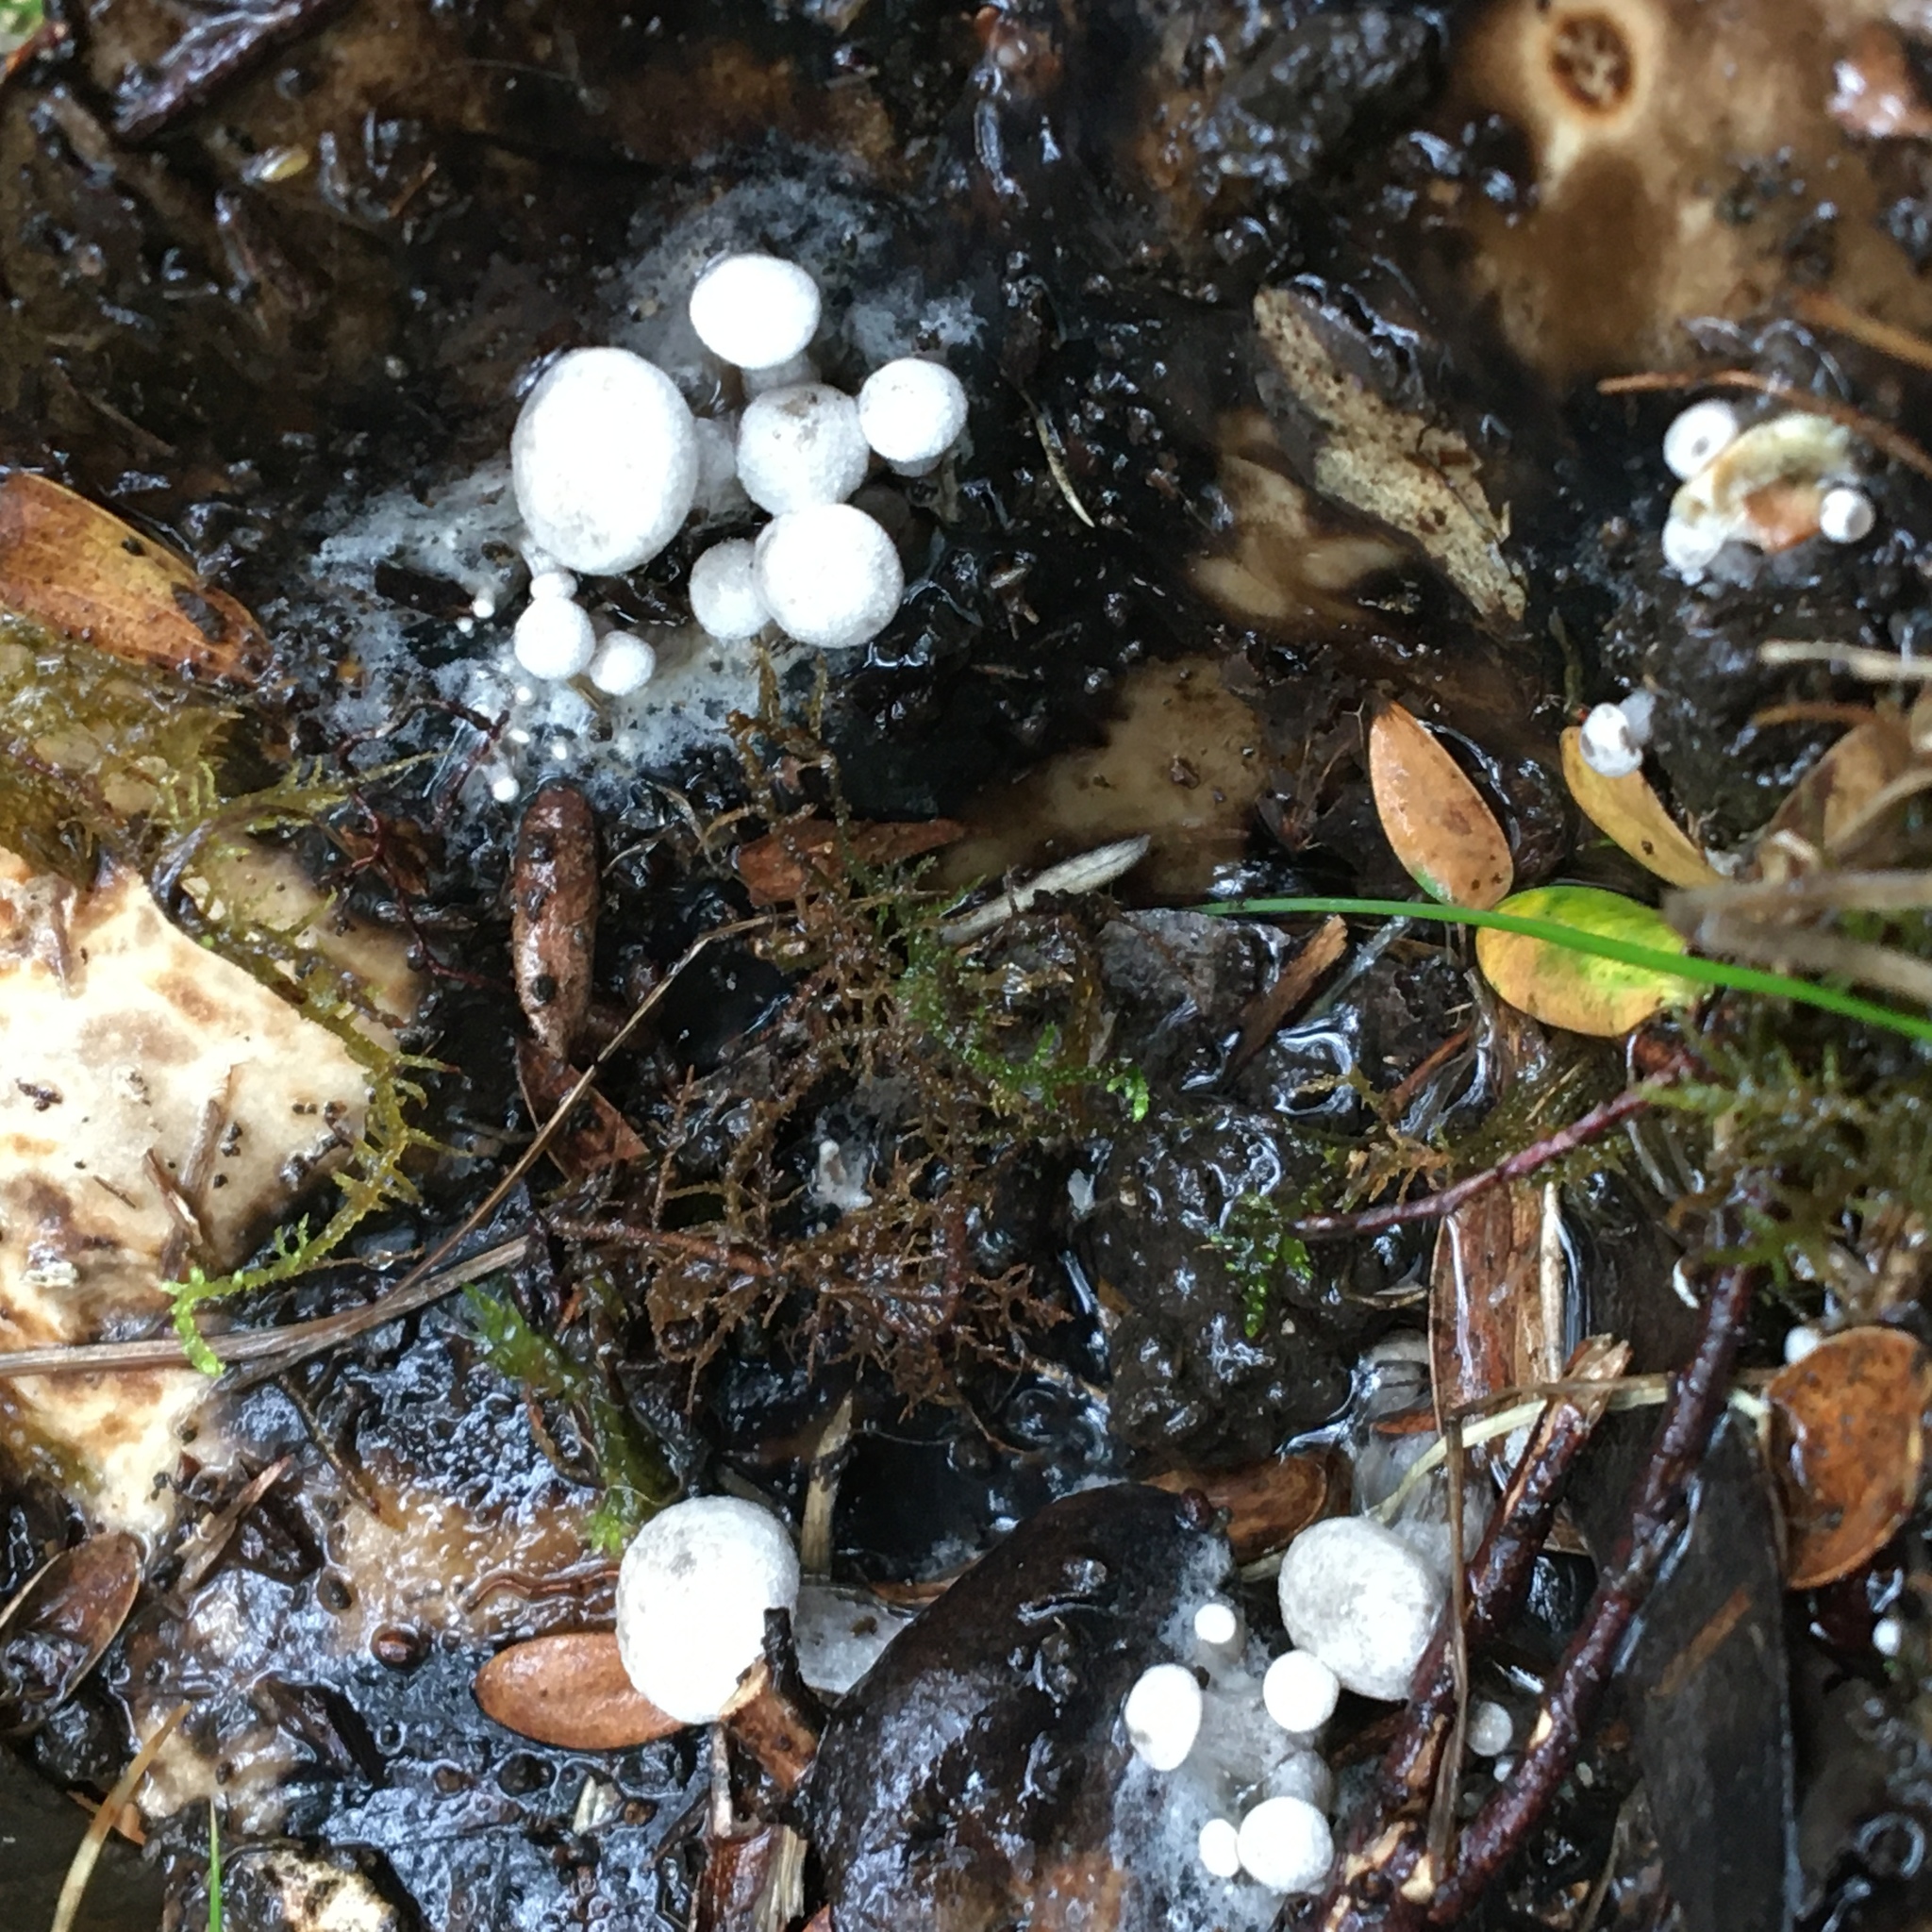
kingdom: Fungi
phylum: Basidiomycota
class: Agaricomycetes
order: Agaricales
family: Lyophyllaceae
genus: Asterophora
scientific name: Asterophora mirabilis
